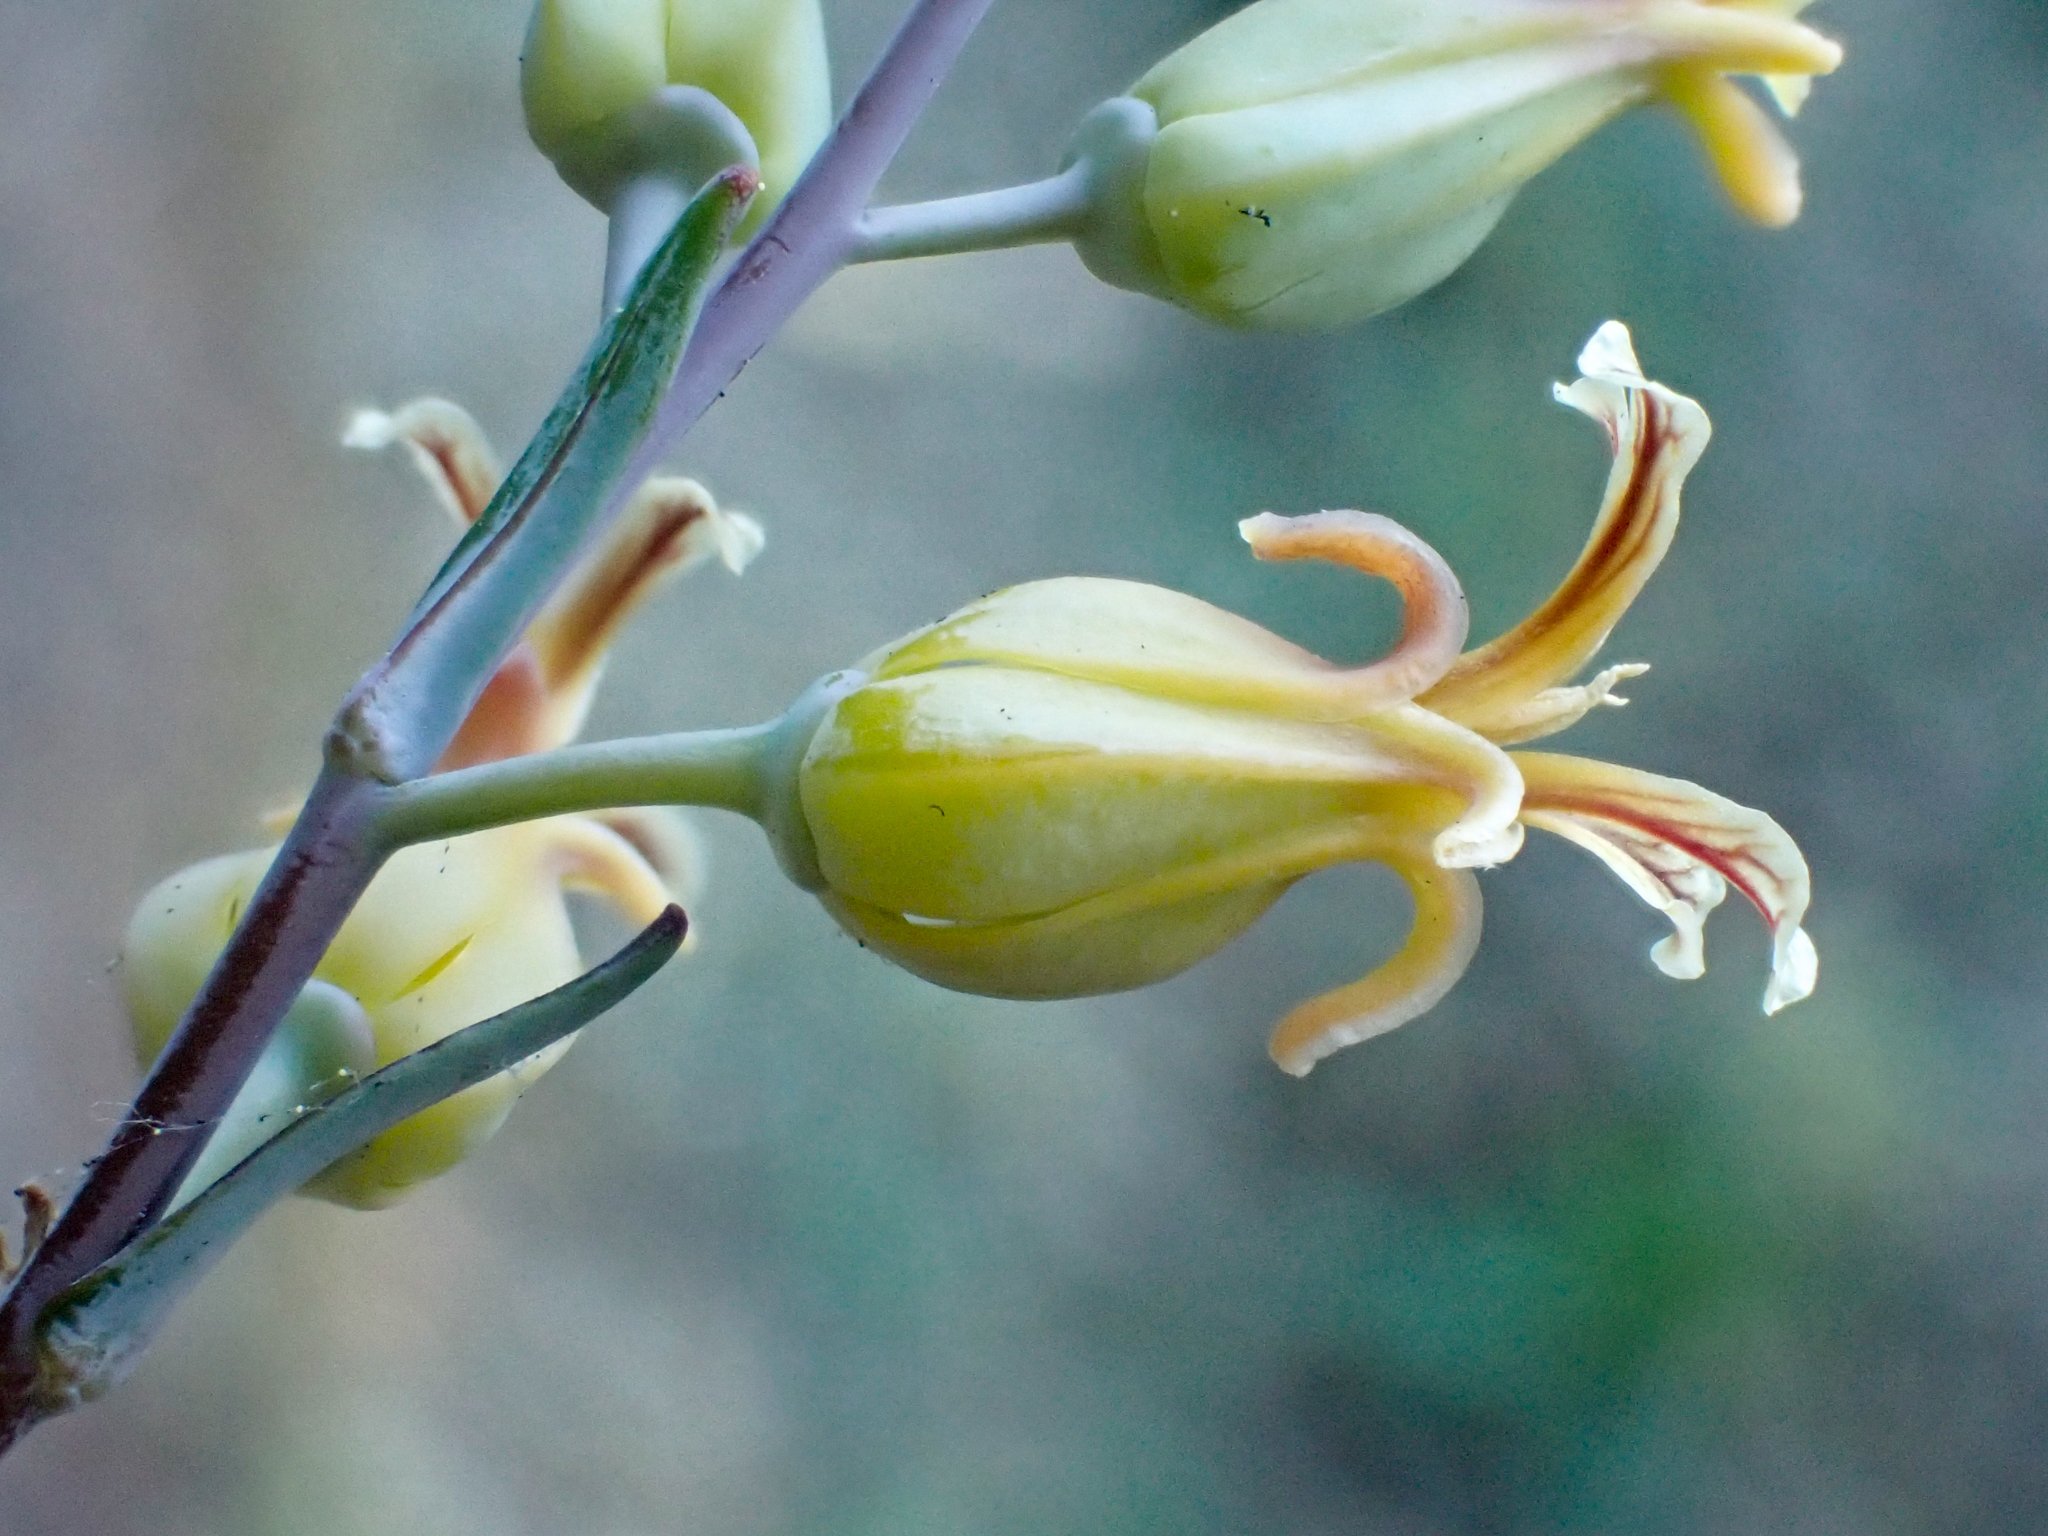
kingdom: Plantae
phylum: Tracheophyta
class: Magnoliopsida
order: Brassicales
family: Brassicaceae
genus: Streptanthus
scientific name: Streptanthus oblanceolatus
